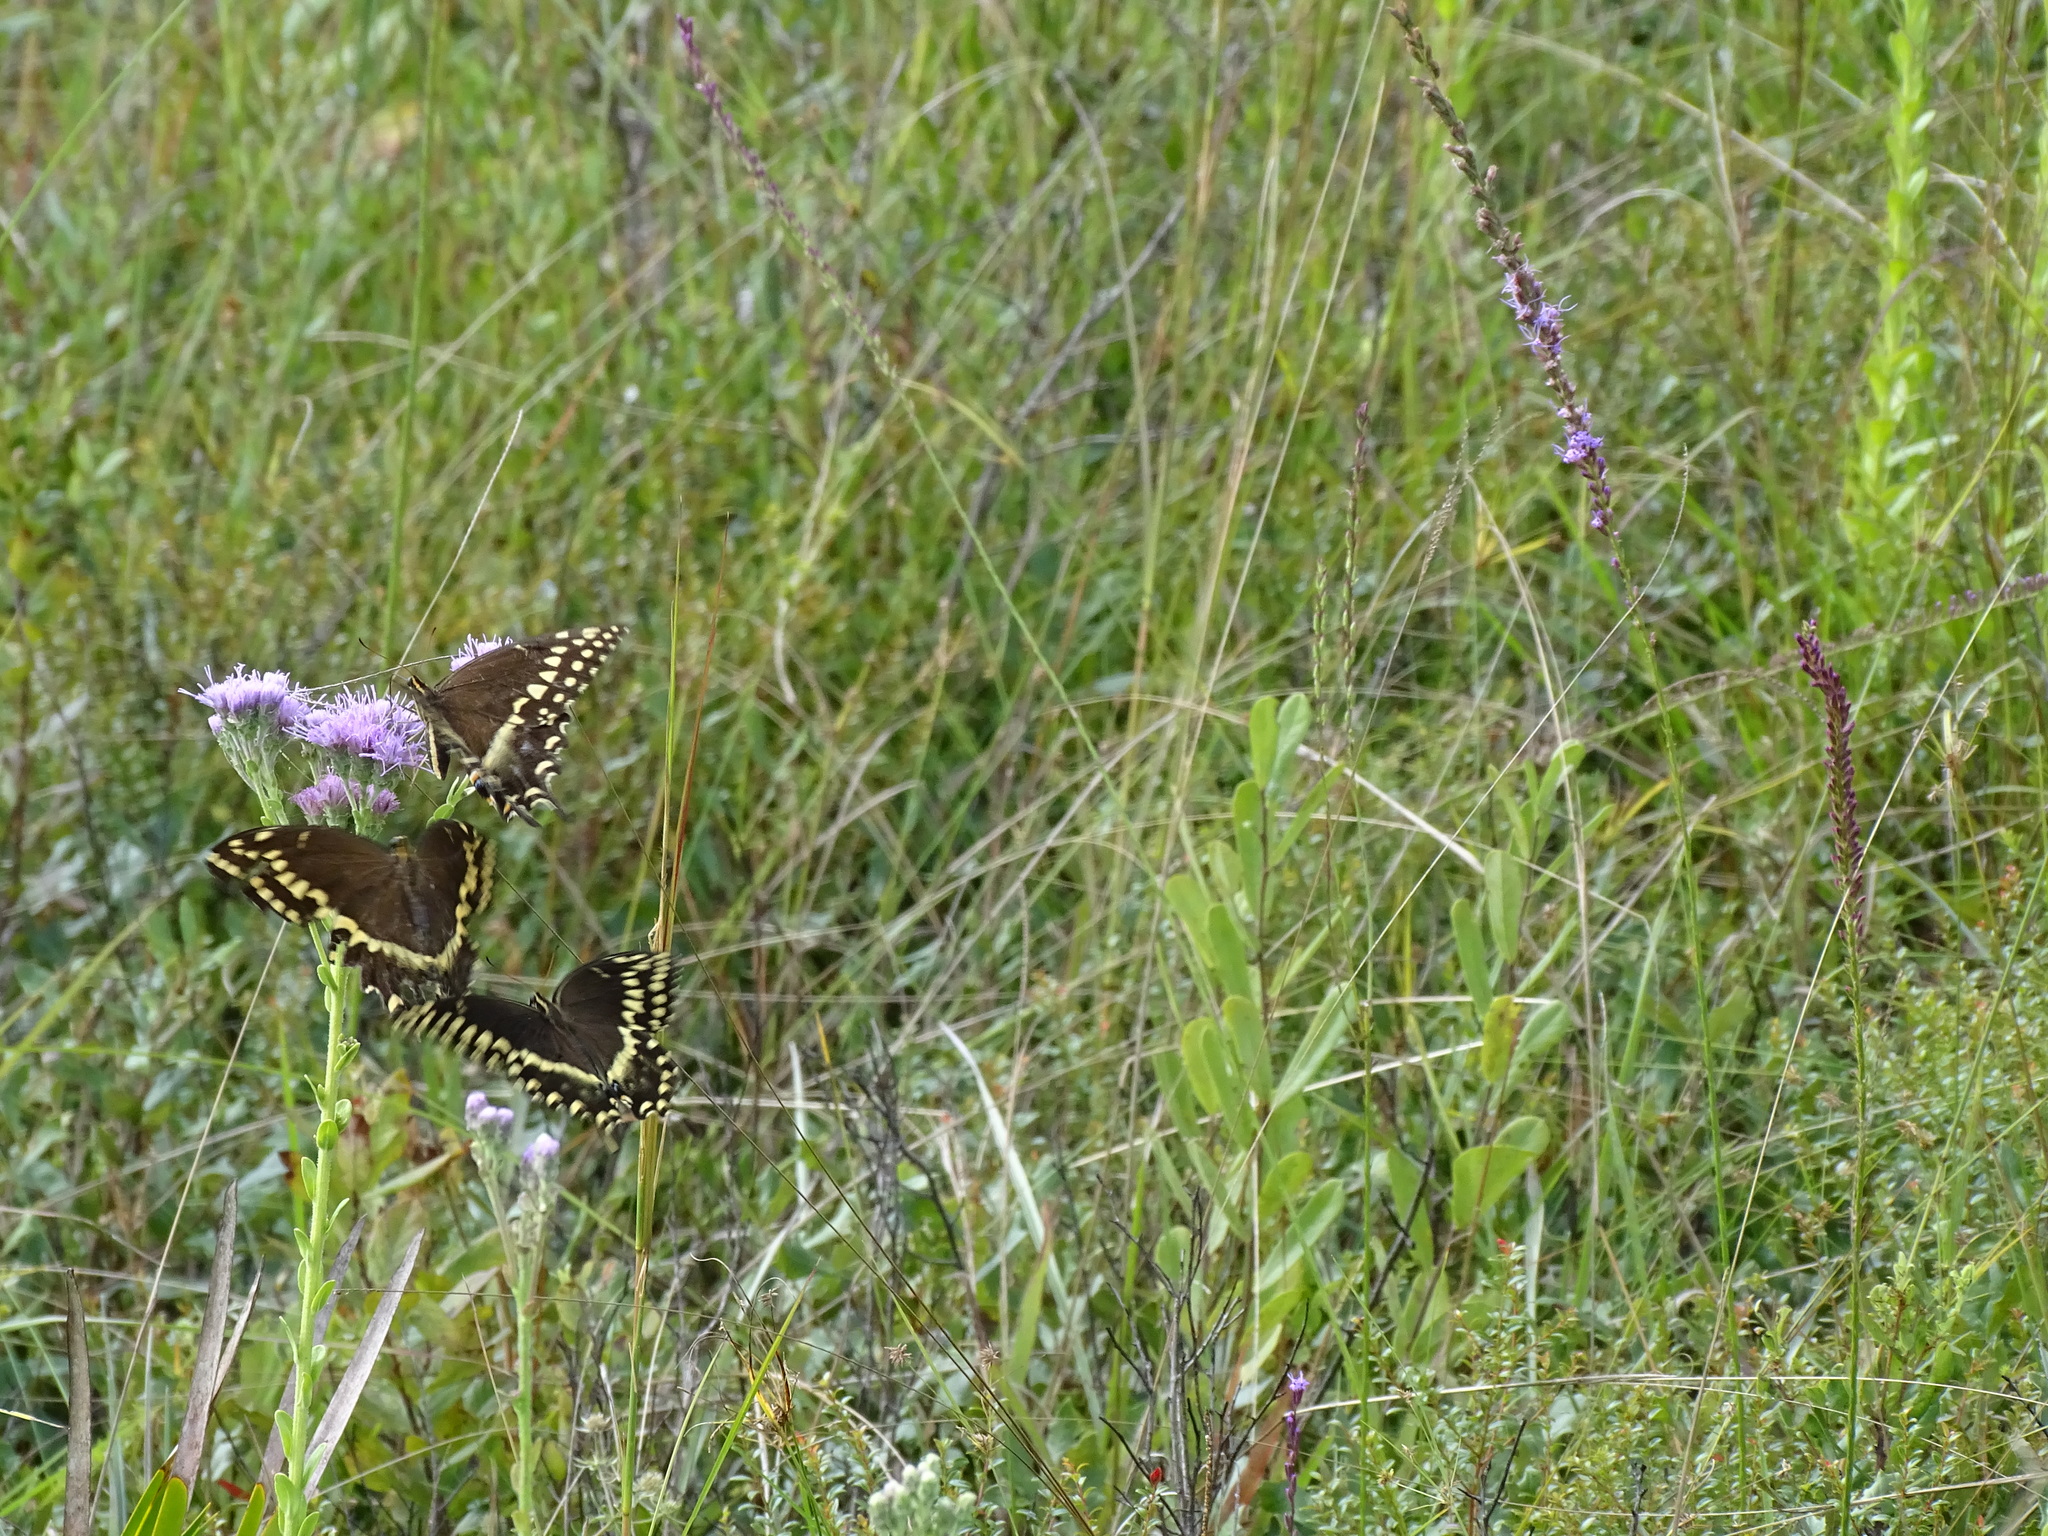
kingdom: Animalia
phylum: Arthropoda
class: Insecta
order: Lepidoptera
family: Papilionidae
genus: Papilio
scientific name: Papilio palamedes
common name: Palamedes swallowtail
